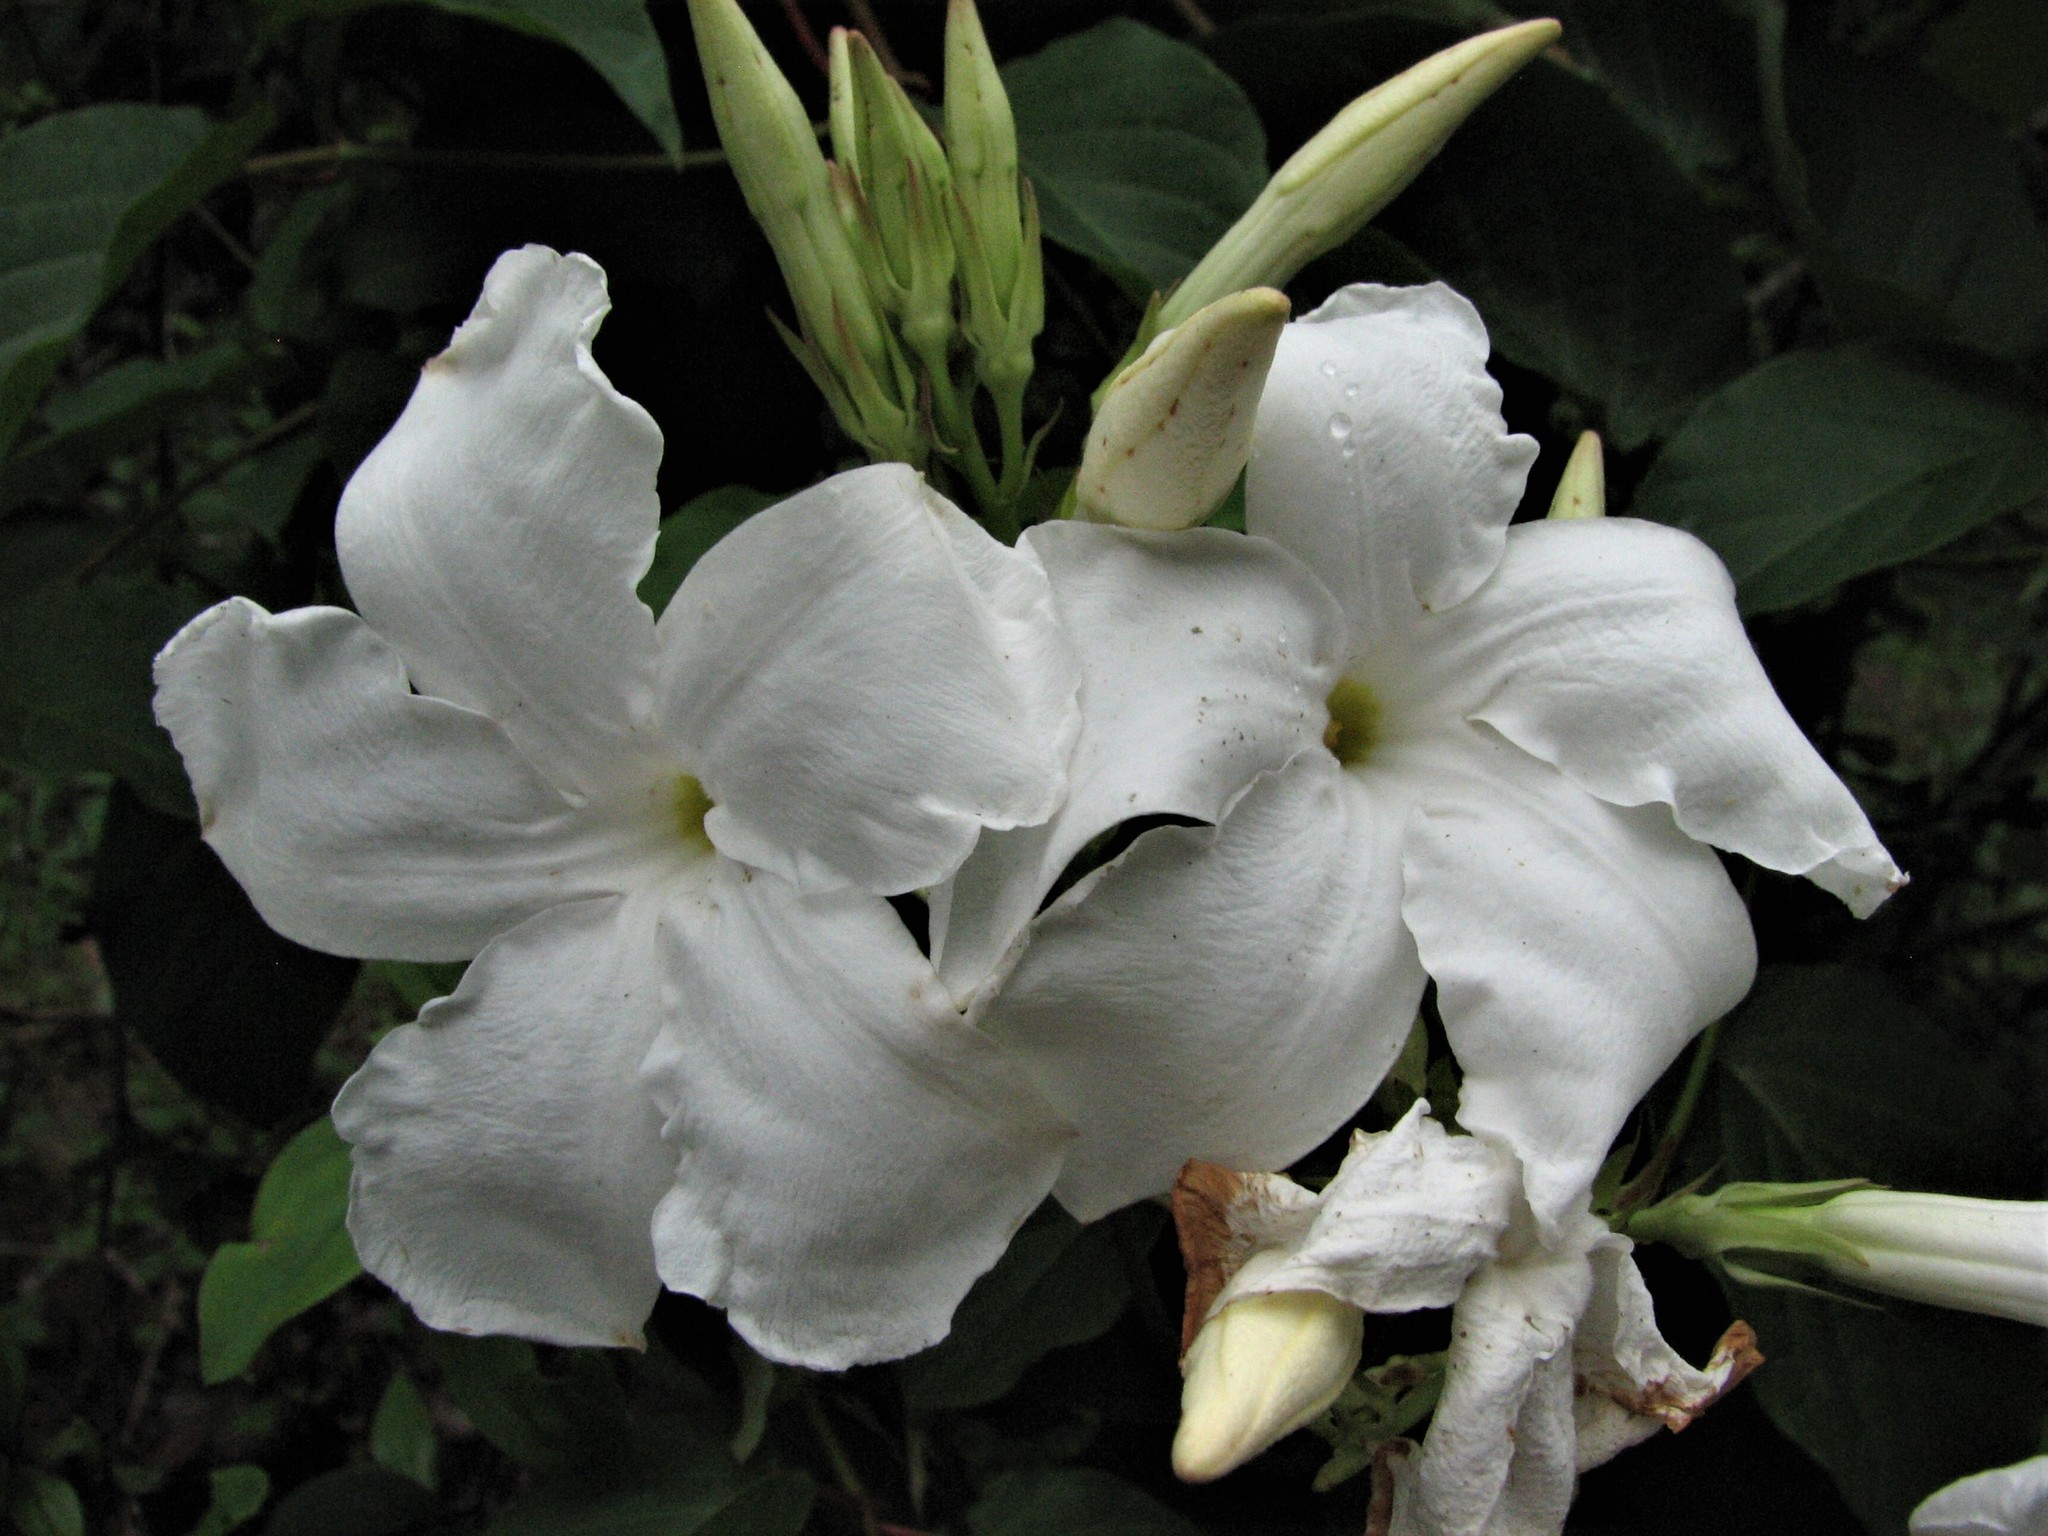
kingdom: Plantae
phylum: Tracheophyta
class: Magnoliopsida
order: Gentianales
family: Apocynaceae
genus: Mandevilla
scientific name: Mandevilla laxa
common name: Chilean-jasmine
